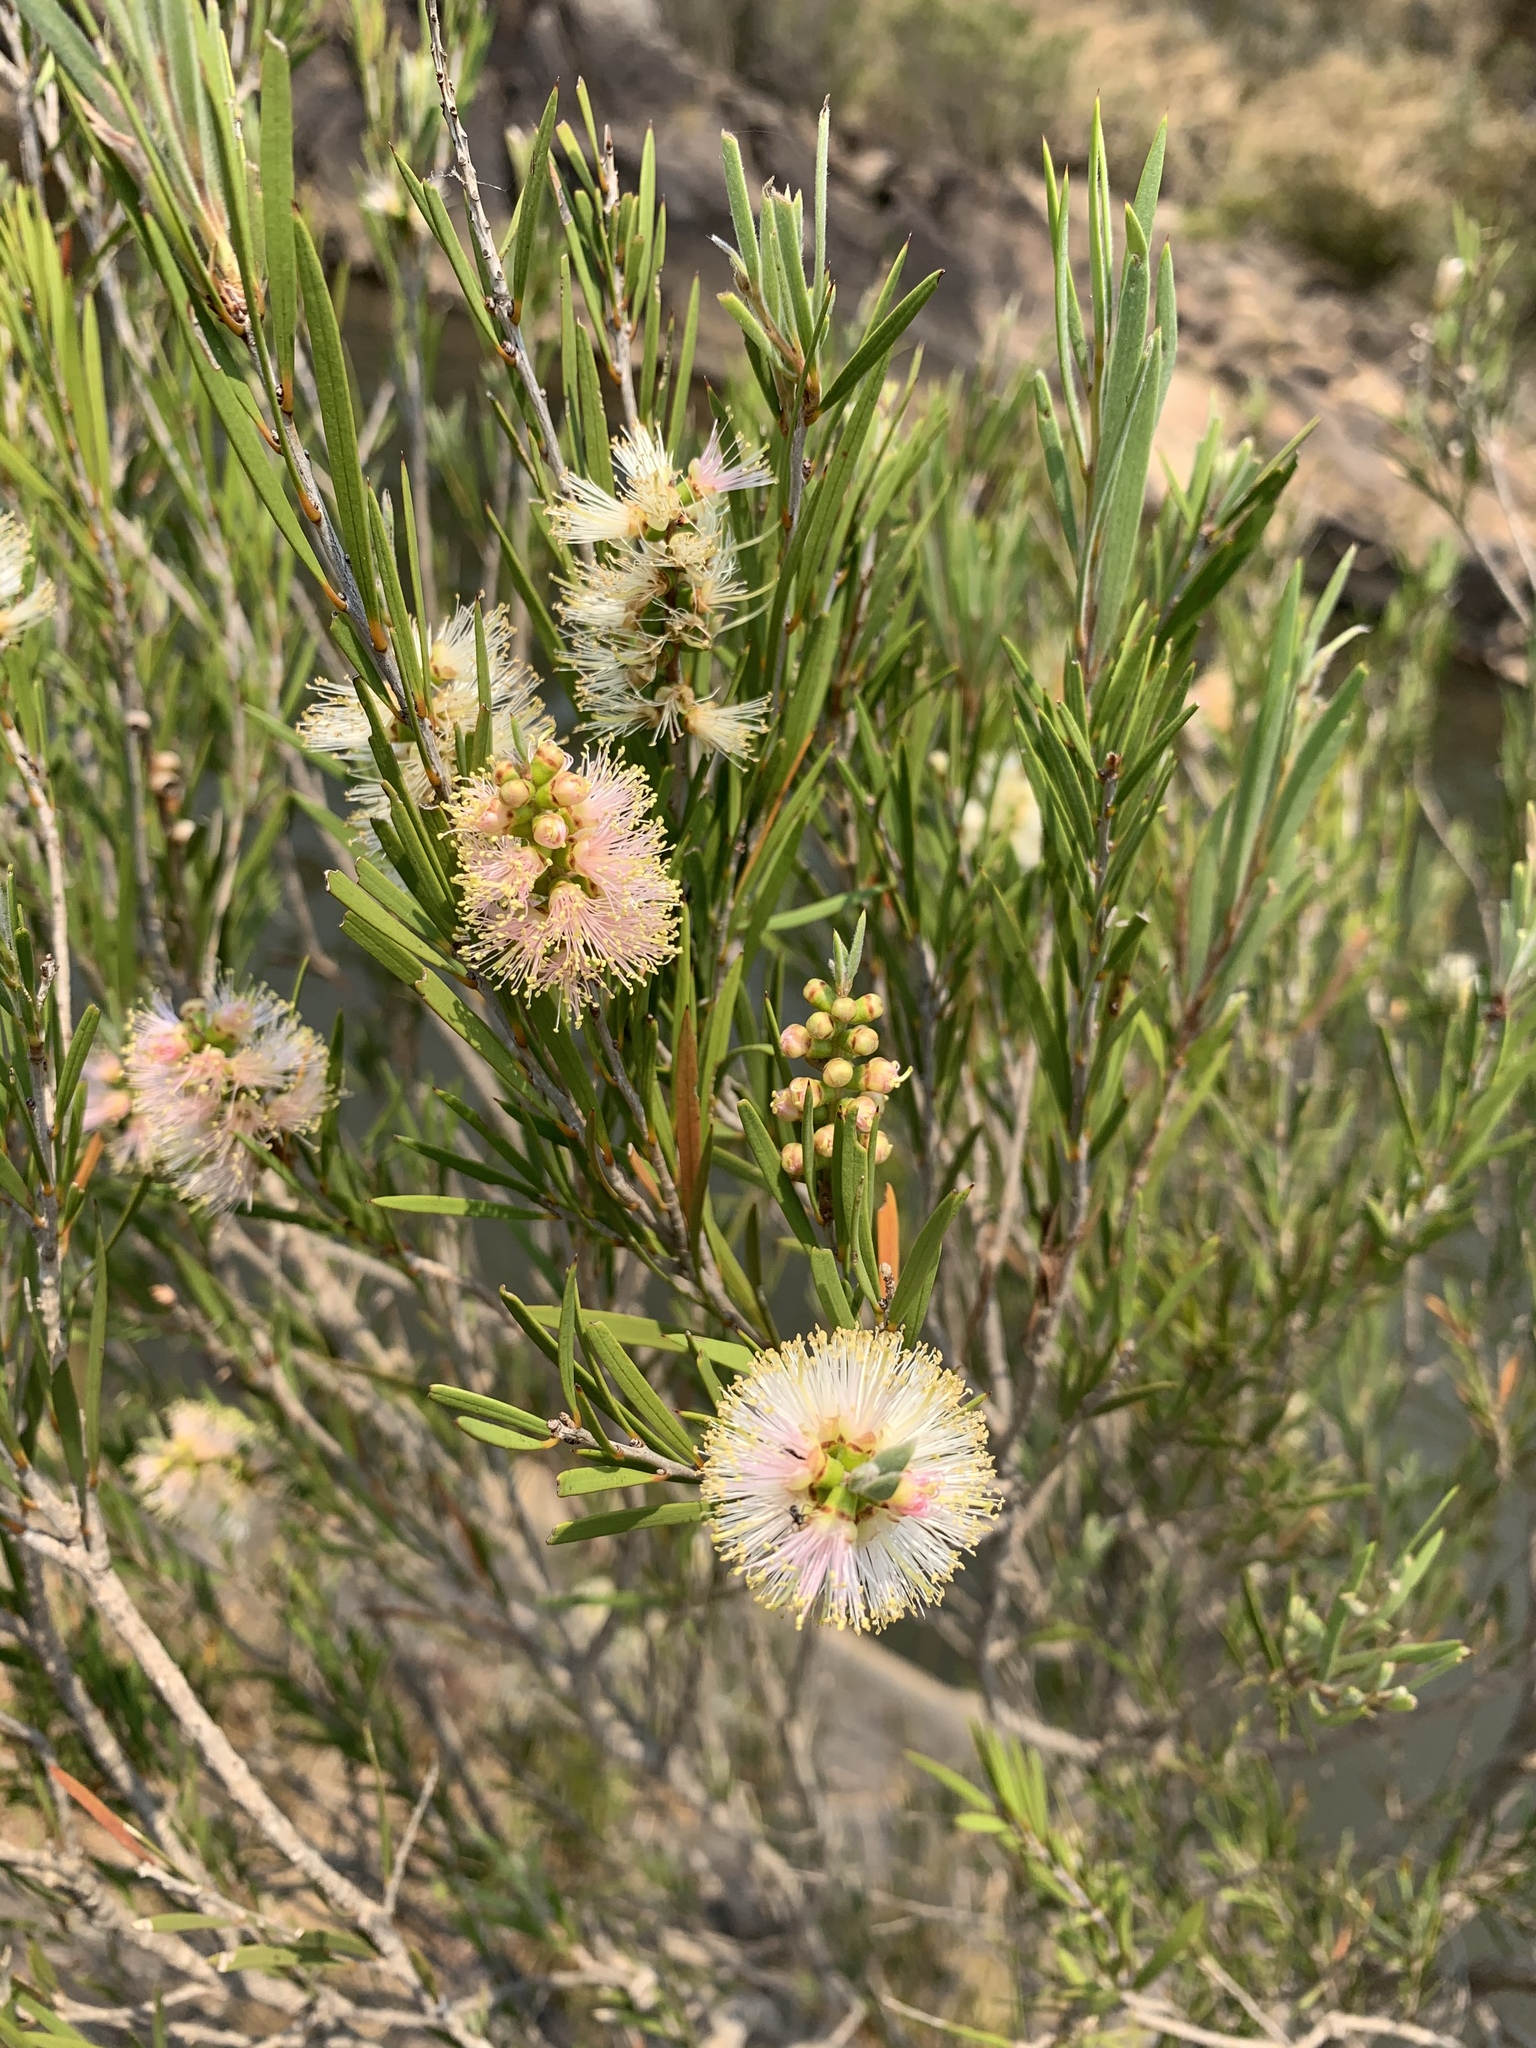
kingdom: Plantae
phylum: Tracheophyta
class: Magnoliopsida
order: Myrtales
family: Myrtaceae
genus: Callistemon
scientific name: Callistemon paludosus
